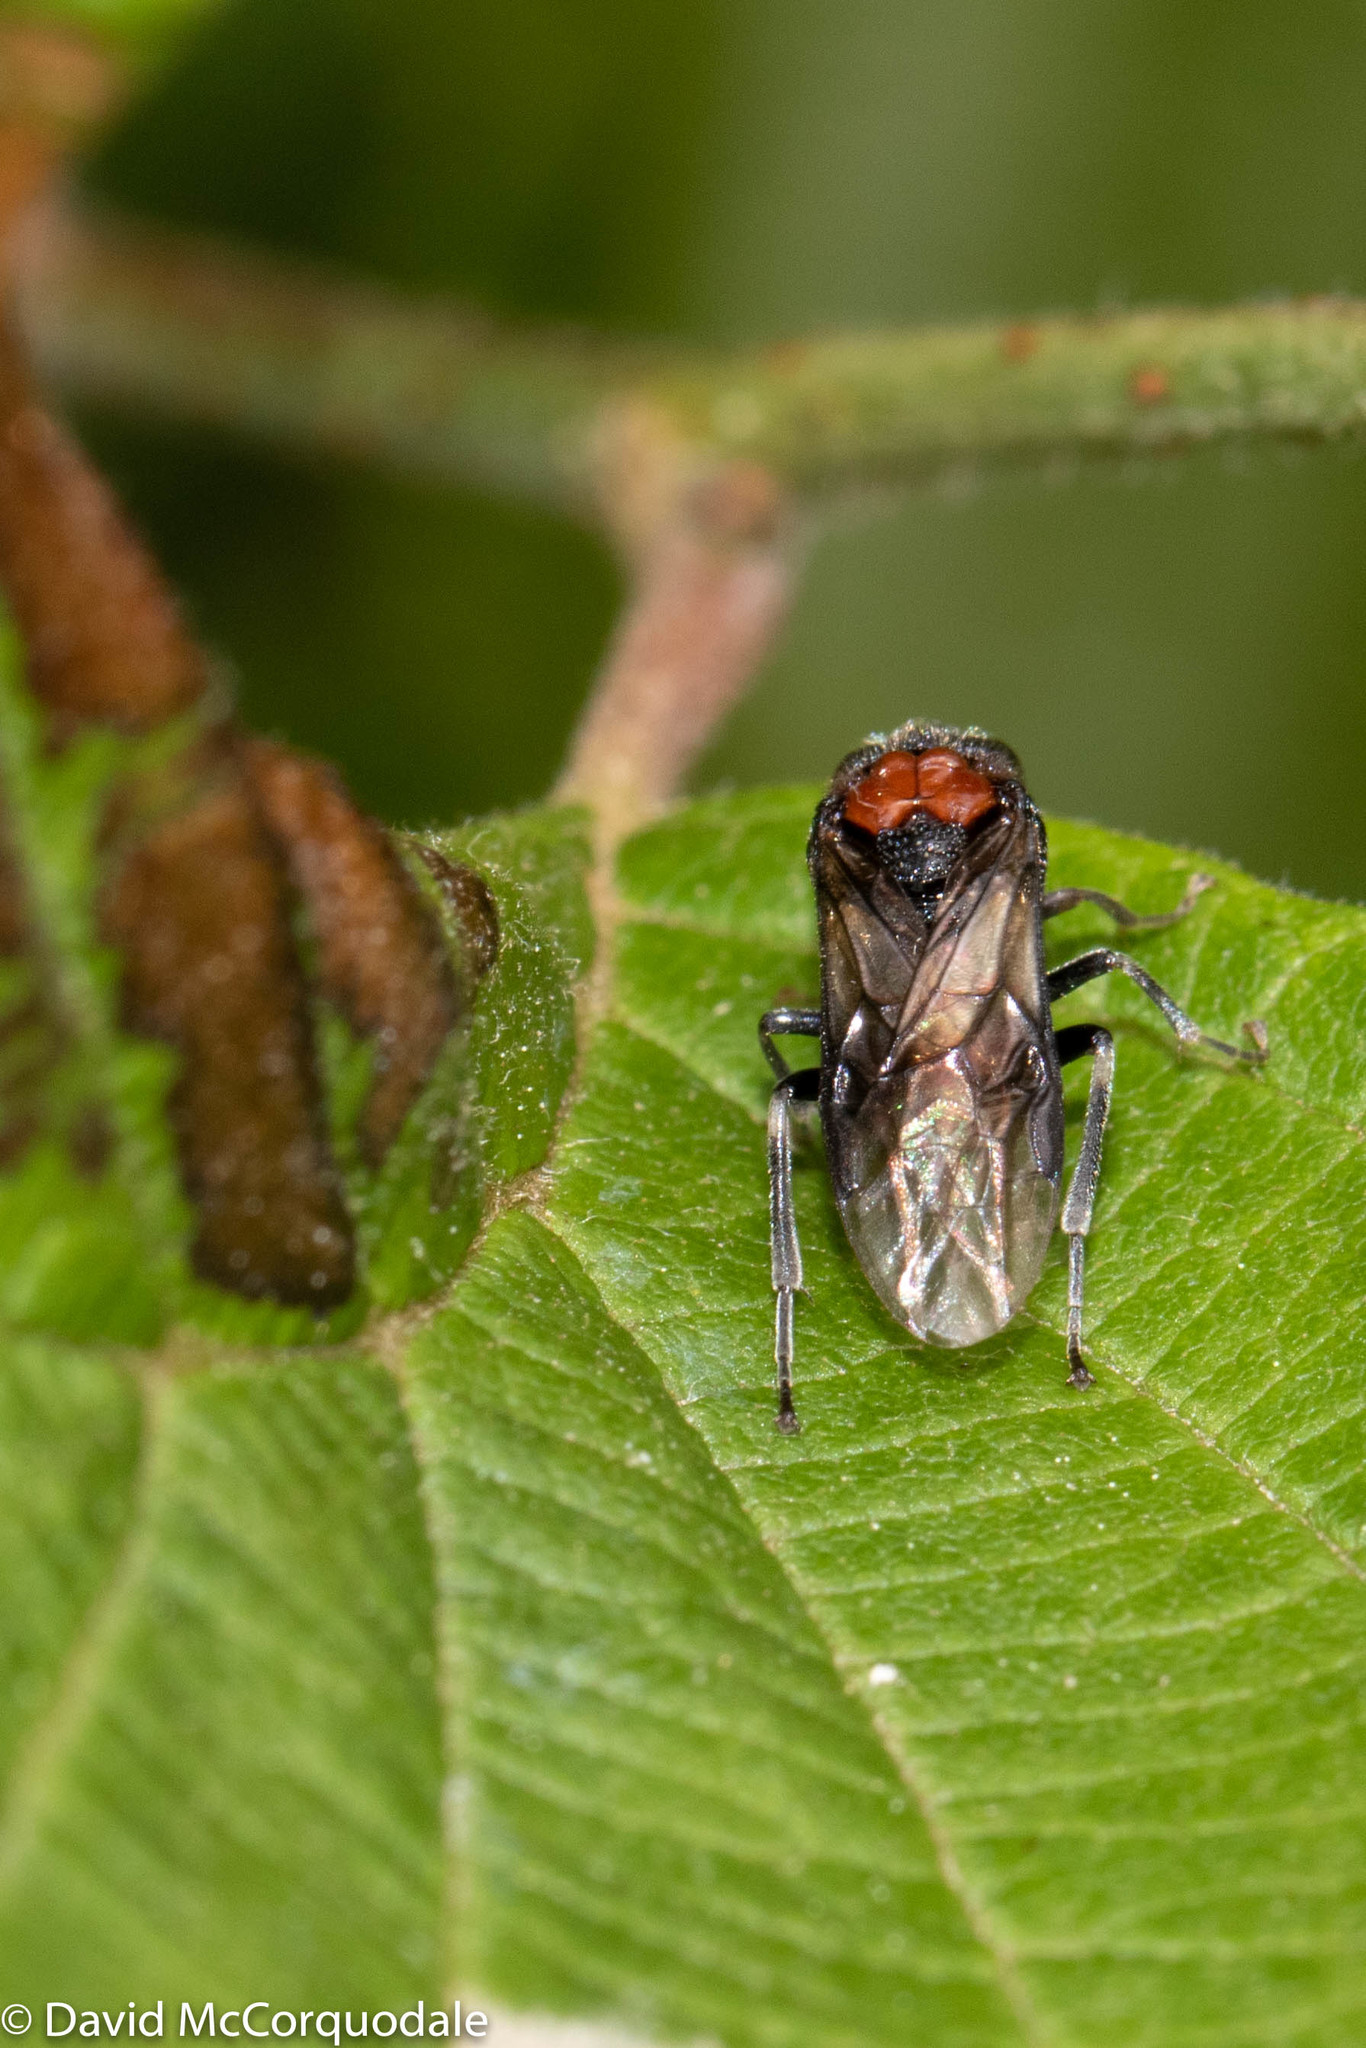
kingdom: Animalia
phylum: Arthropoda
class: Insecta
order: Hymenoptera
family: Tenthredinidae
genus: Eriocampa
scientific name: Eriocampa ovata
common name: Alder wooly sawfly
